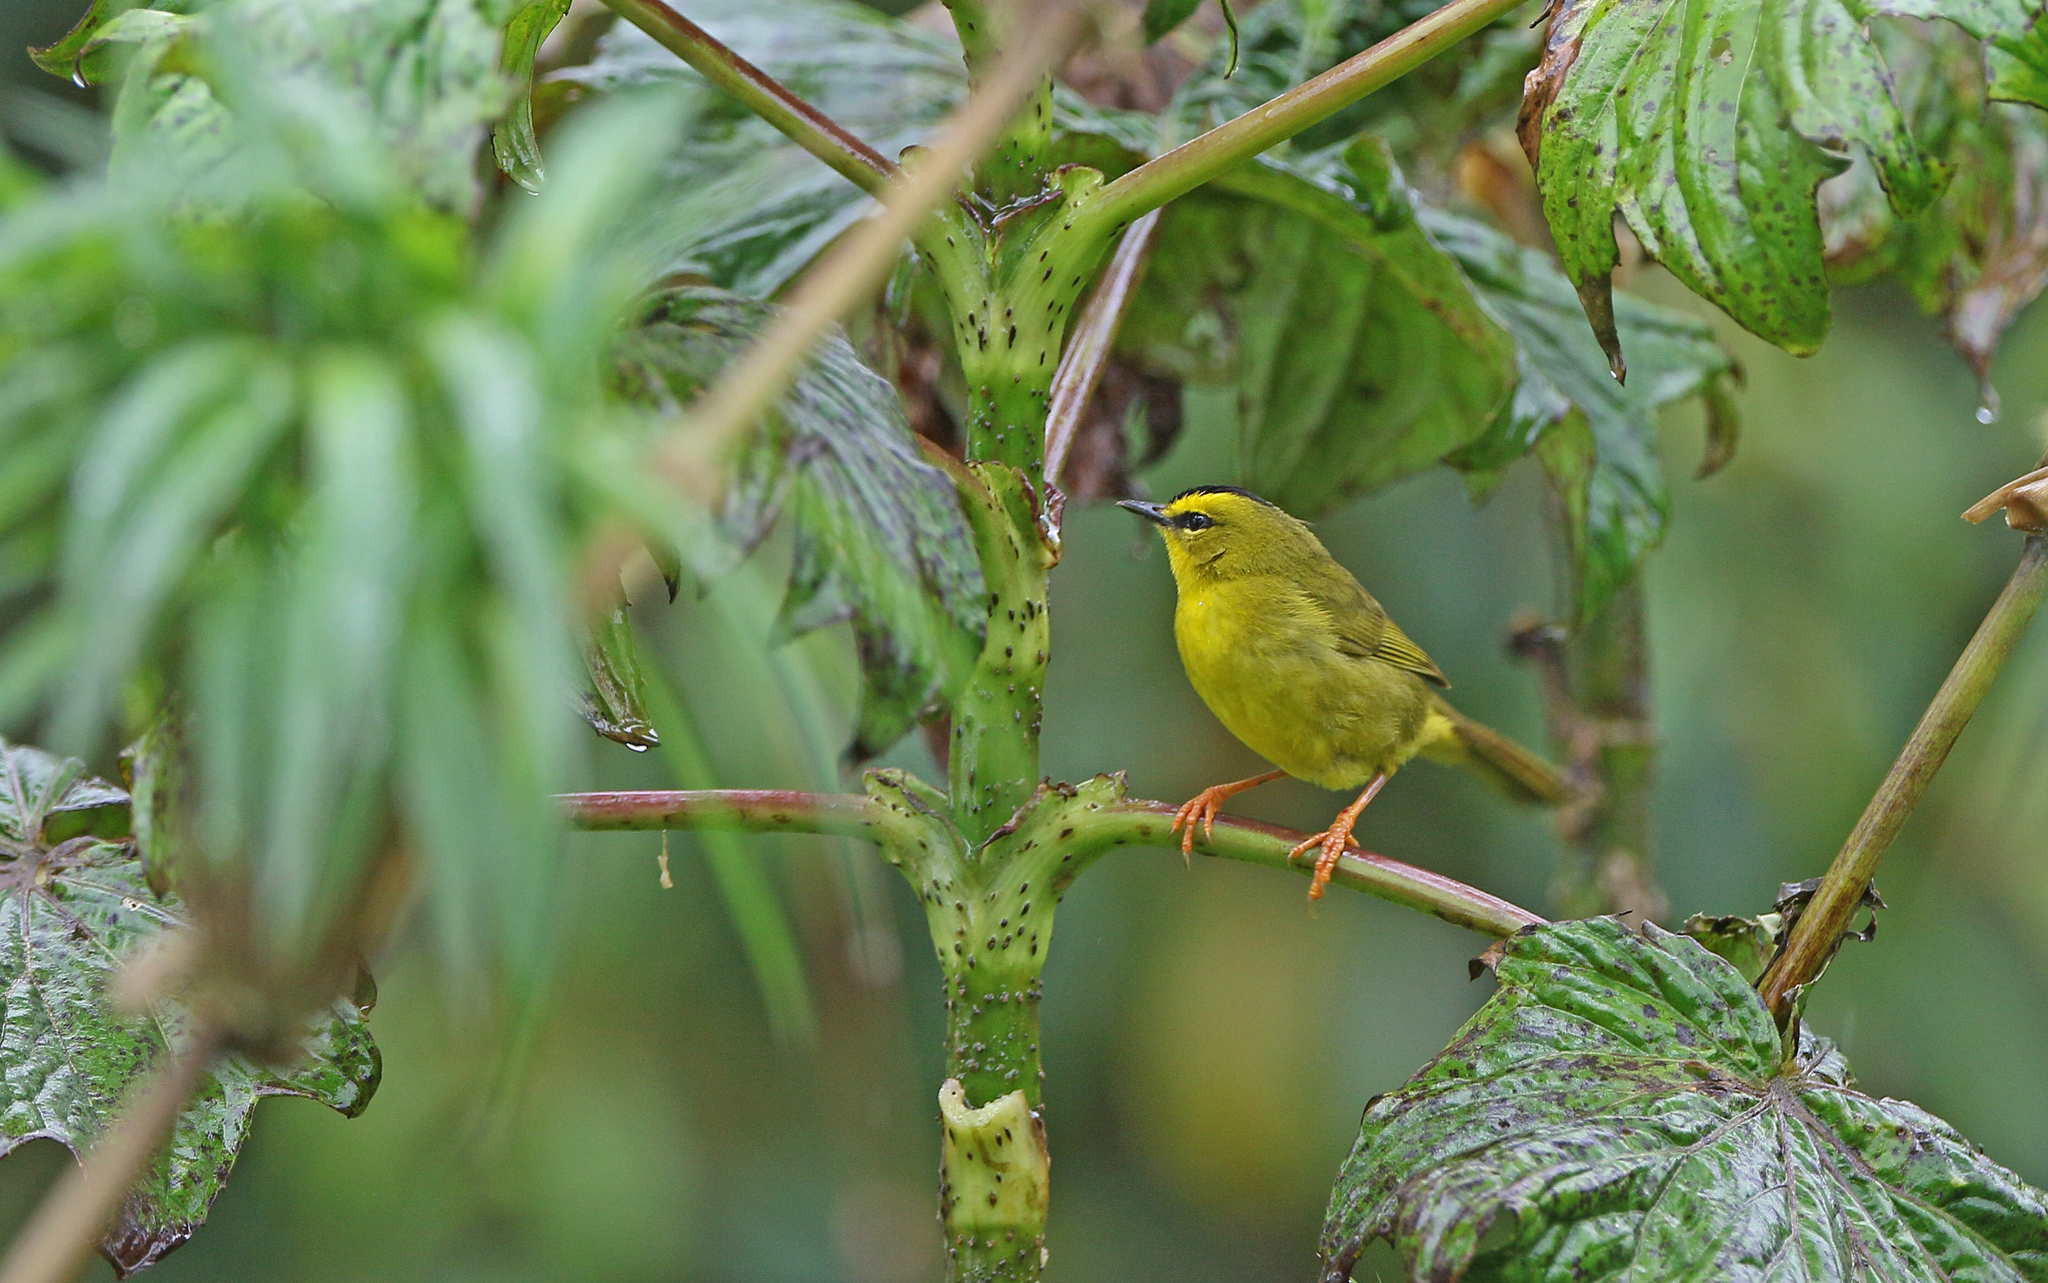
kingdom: Animalia
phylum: Chordata
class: Aves
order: Passeriformes
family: Parulidae
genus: Myiothlypis
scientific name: Myiothlypis nigrocristata
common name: Black-crested warbler
